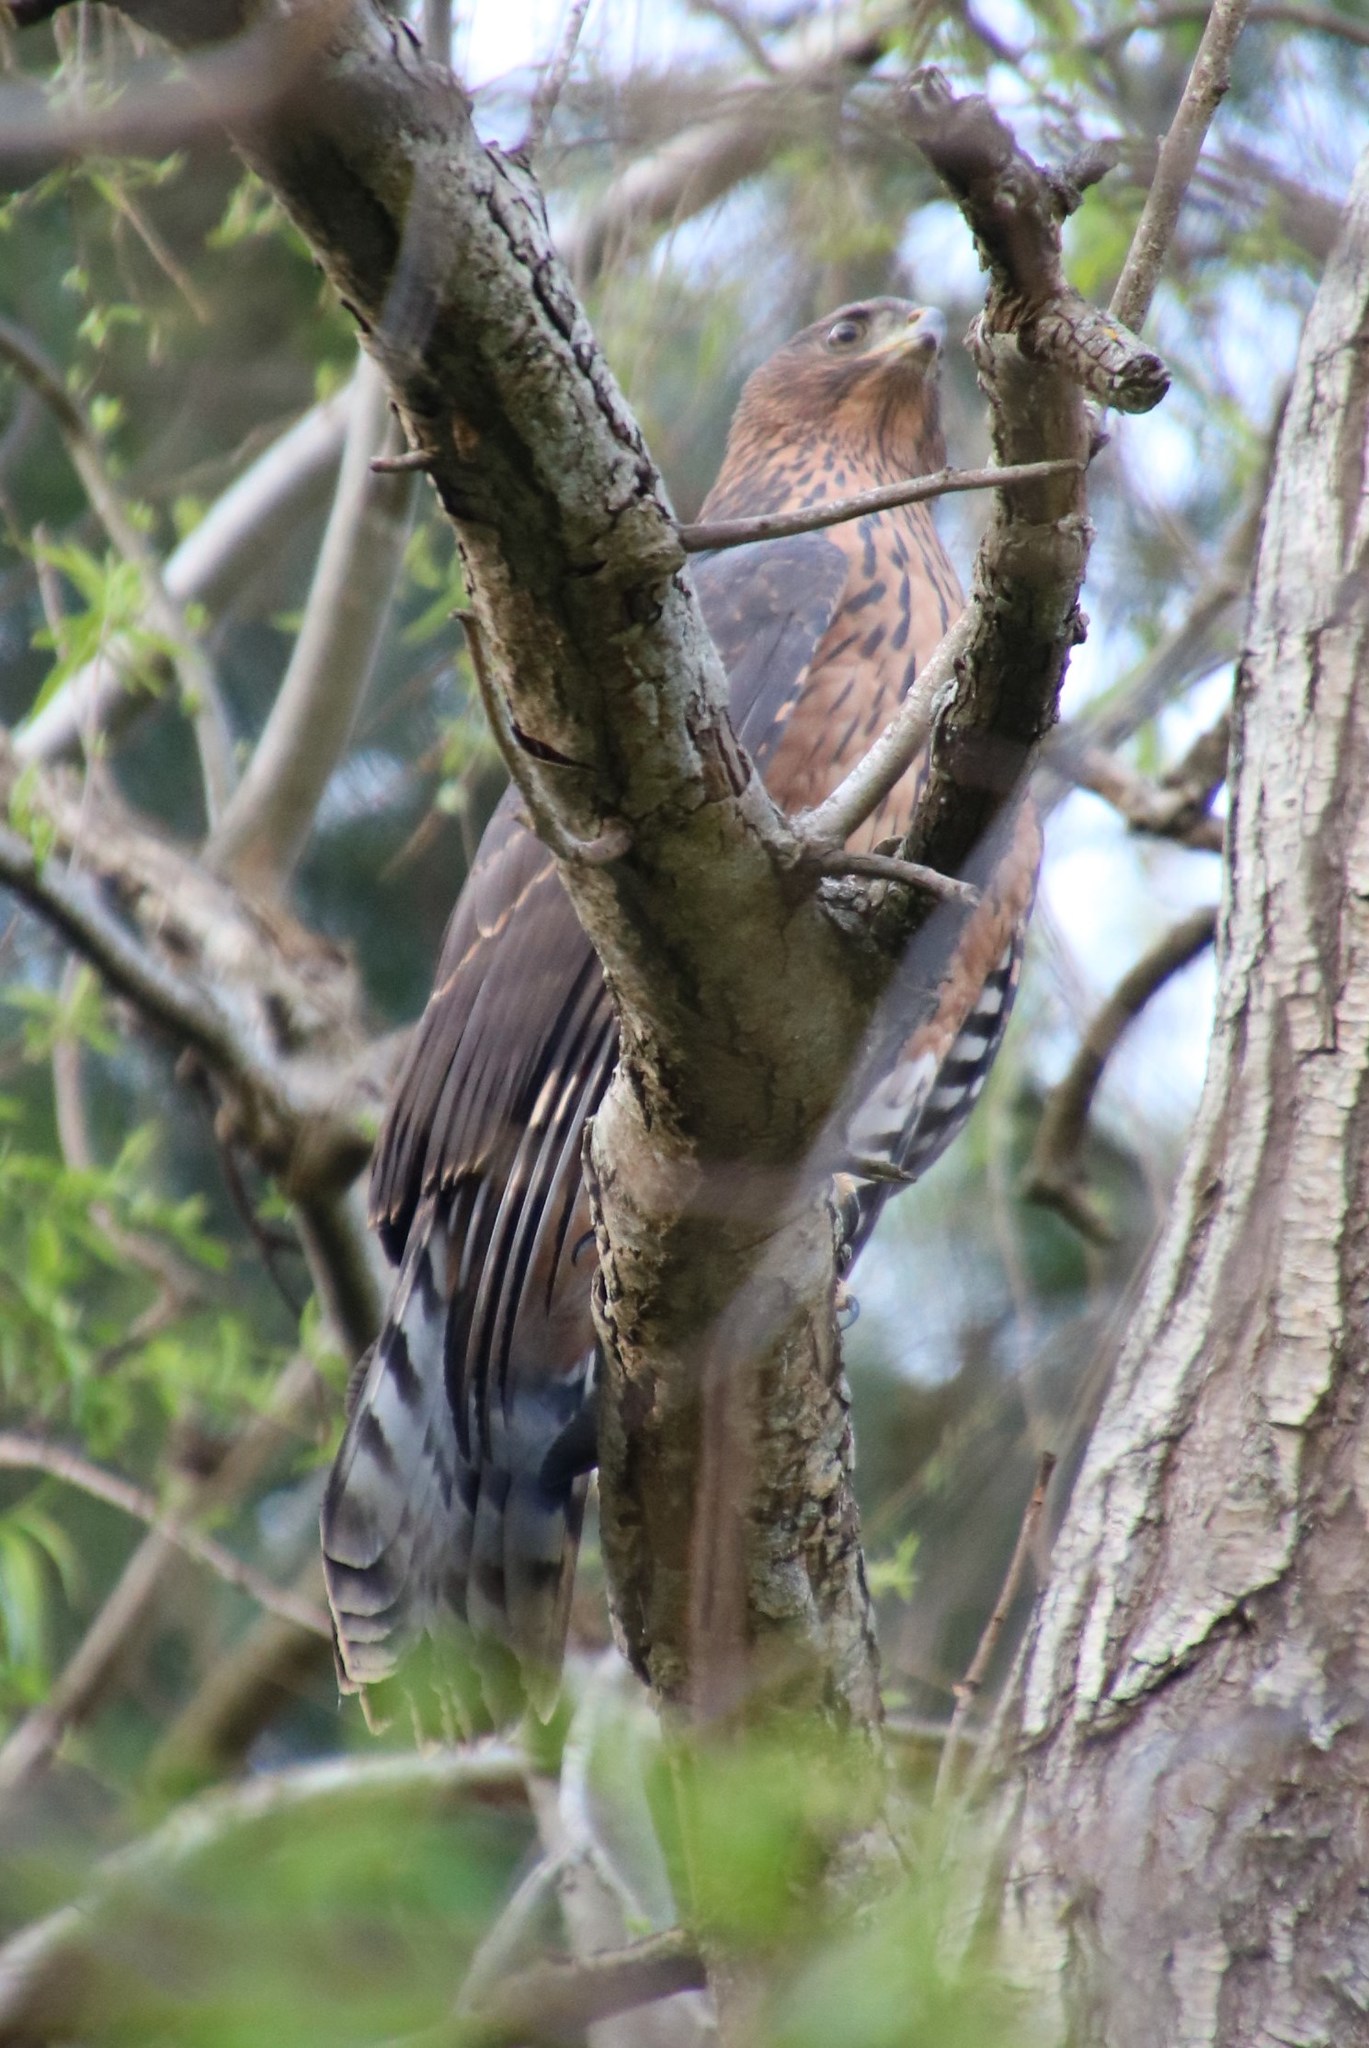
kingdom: Animalia
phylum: Chordata
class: Aves
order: Accipitriformes
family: Accipitridae
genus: Polyboroides
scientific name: Polyboroides typus
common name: African harrier-hawk
